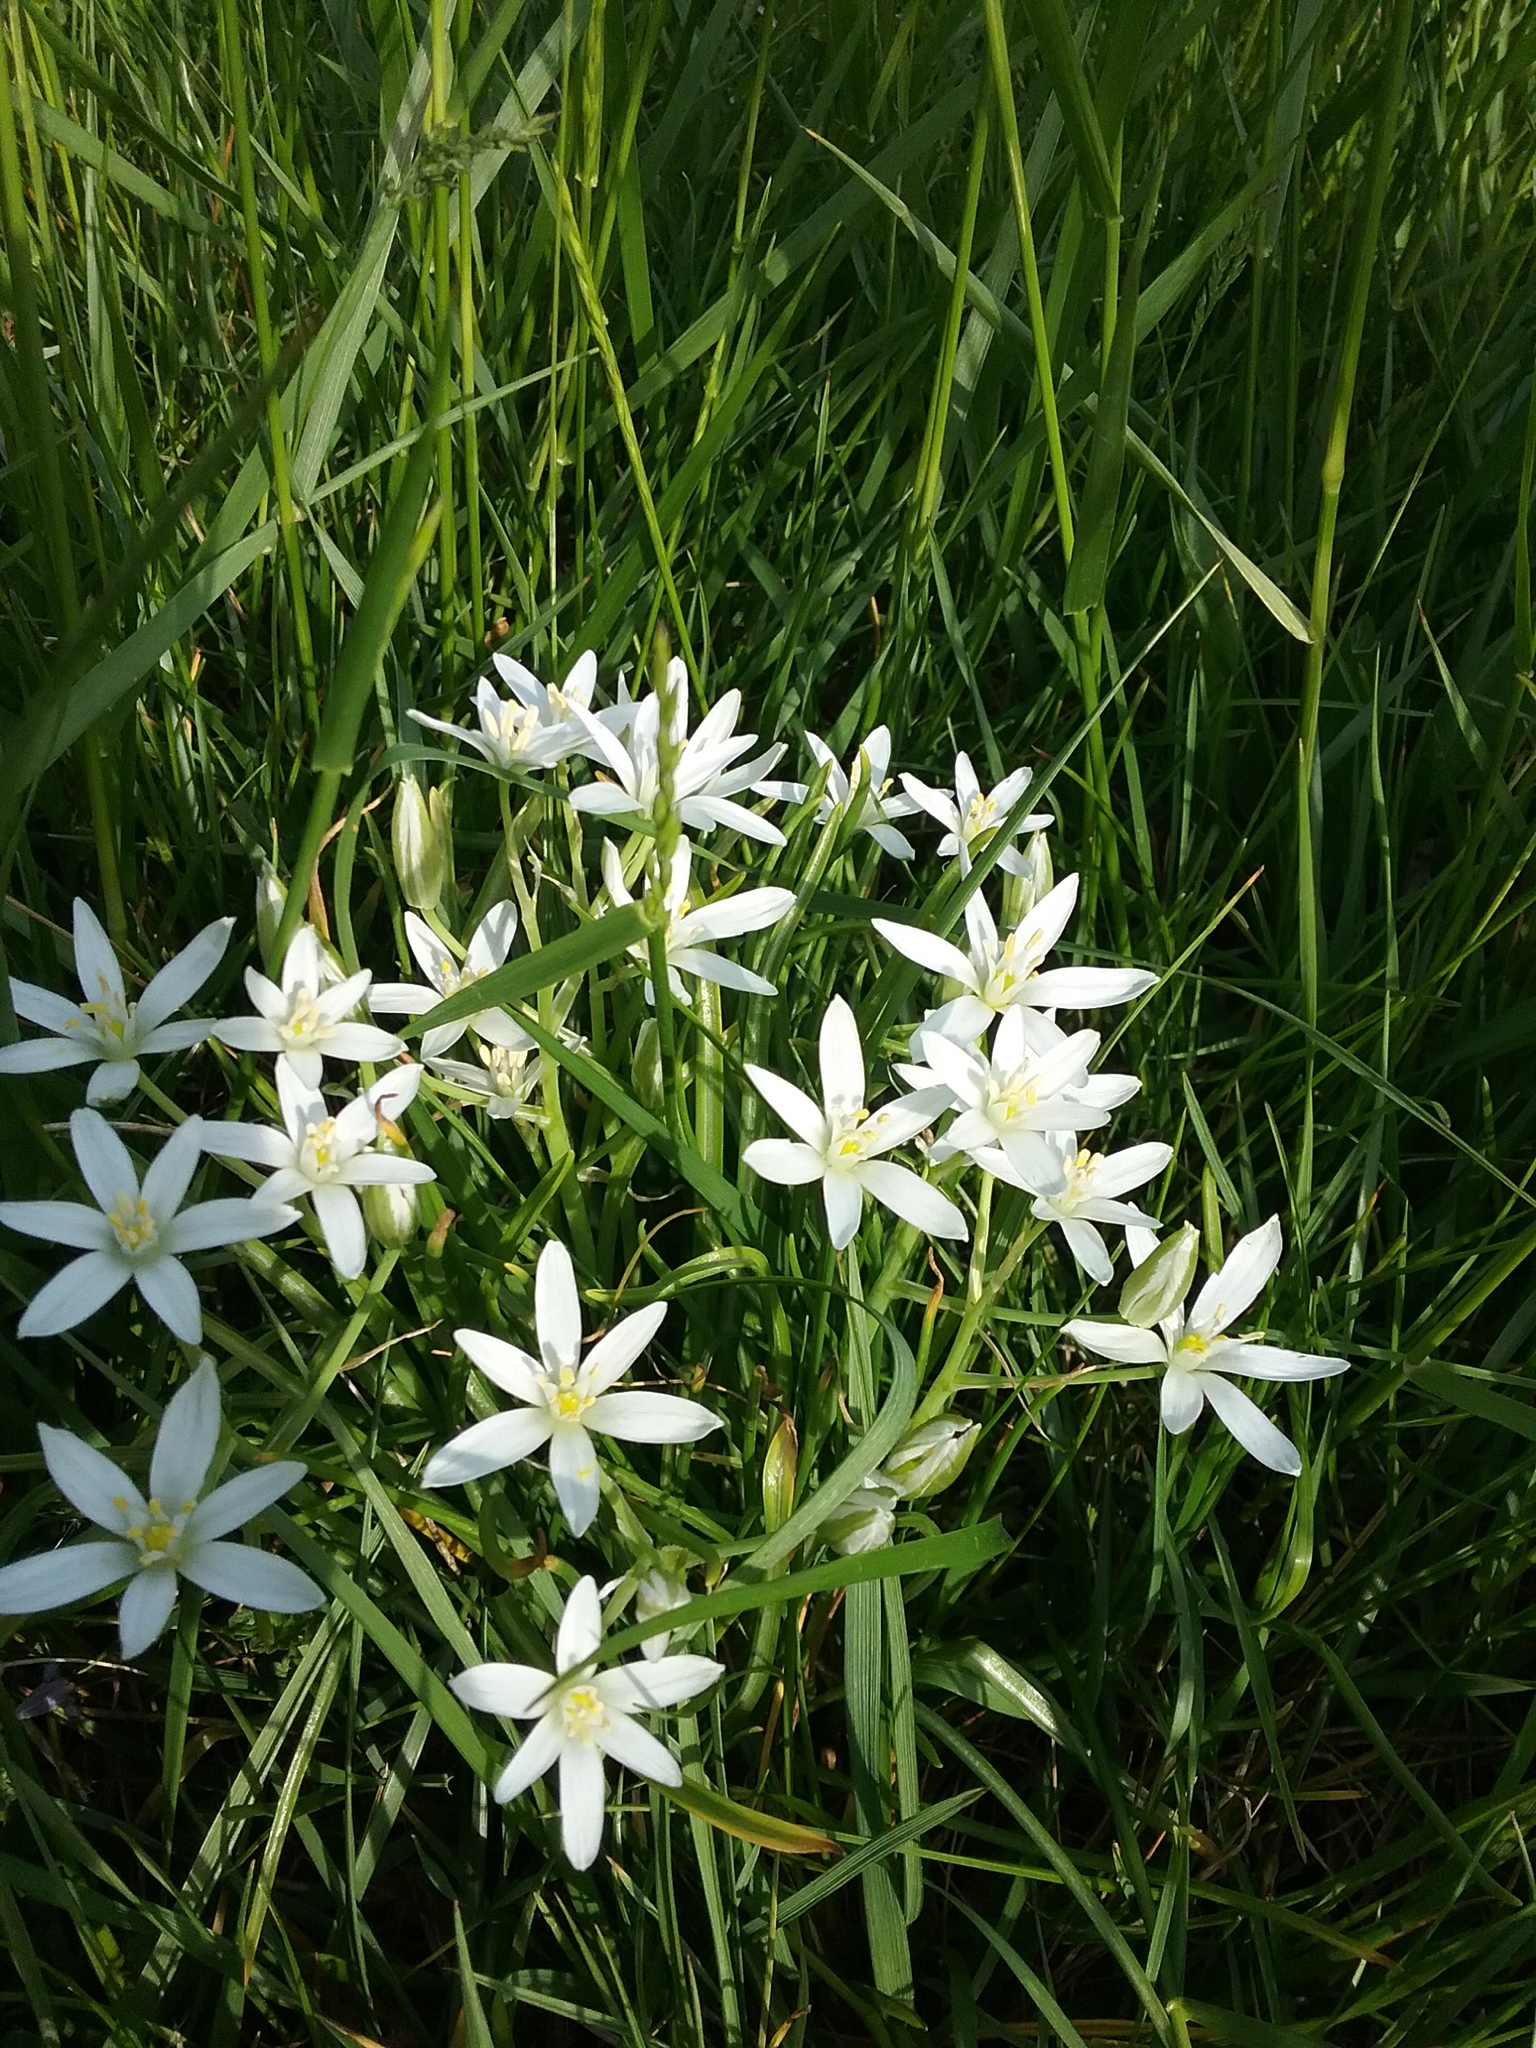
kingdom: Plantae
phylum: Tracheophyta
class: Liliopsida
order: Asparagales
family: Asparagaceae
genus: Ornithogalum
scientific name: Ornithogalum umbellatum
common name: Garden star-of-bethlehem
